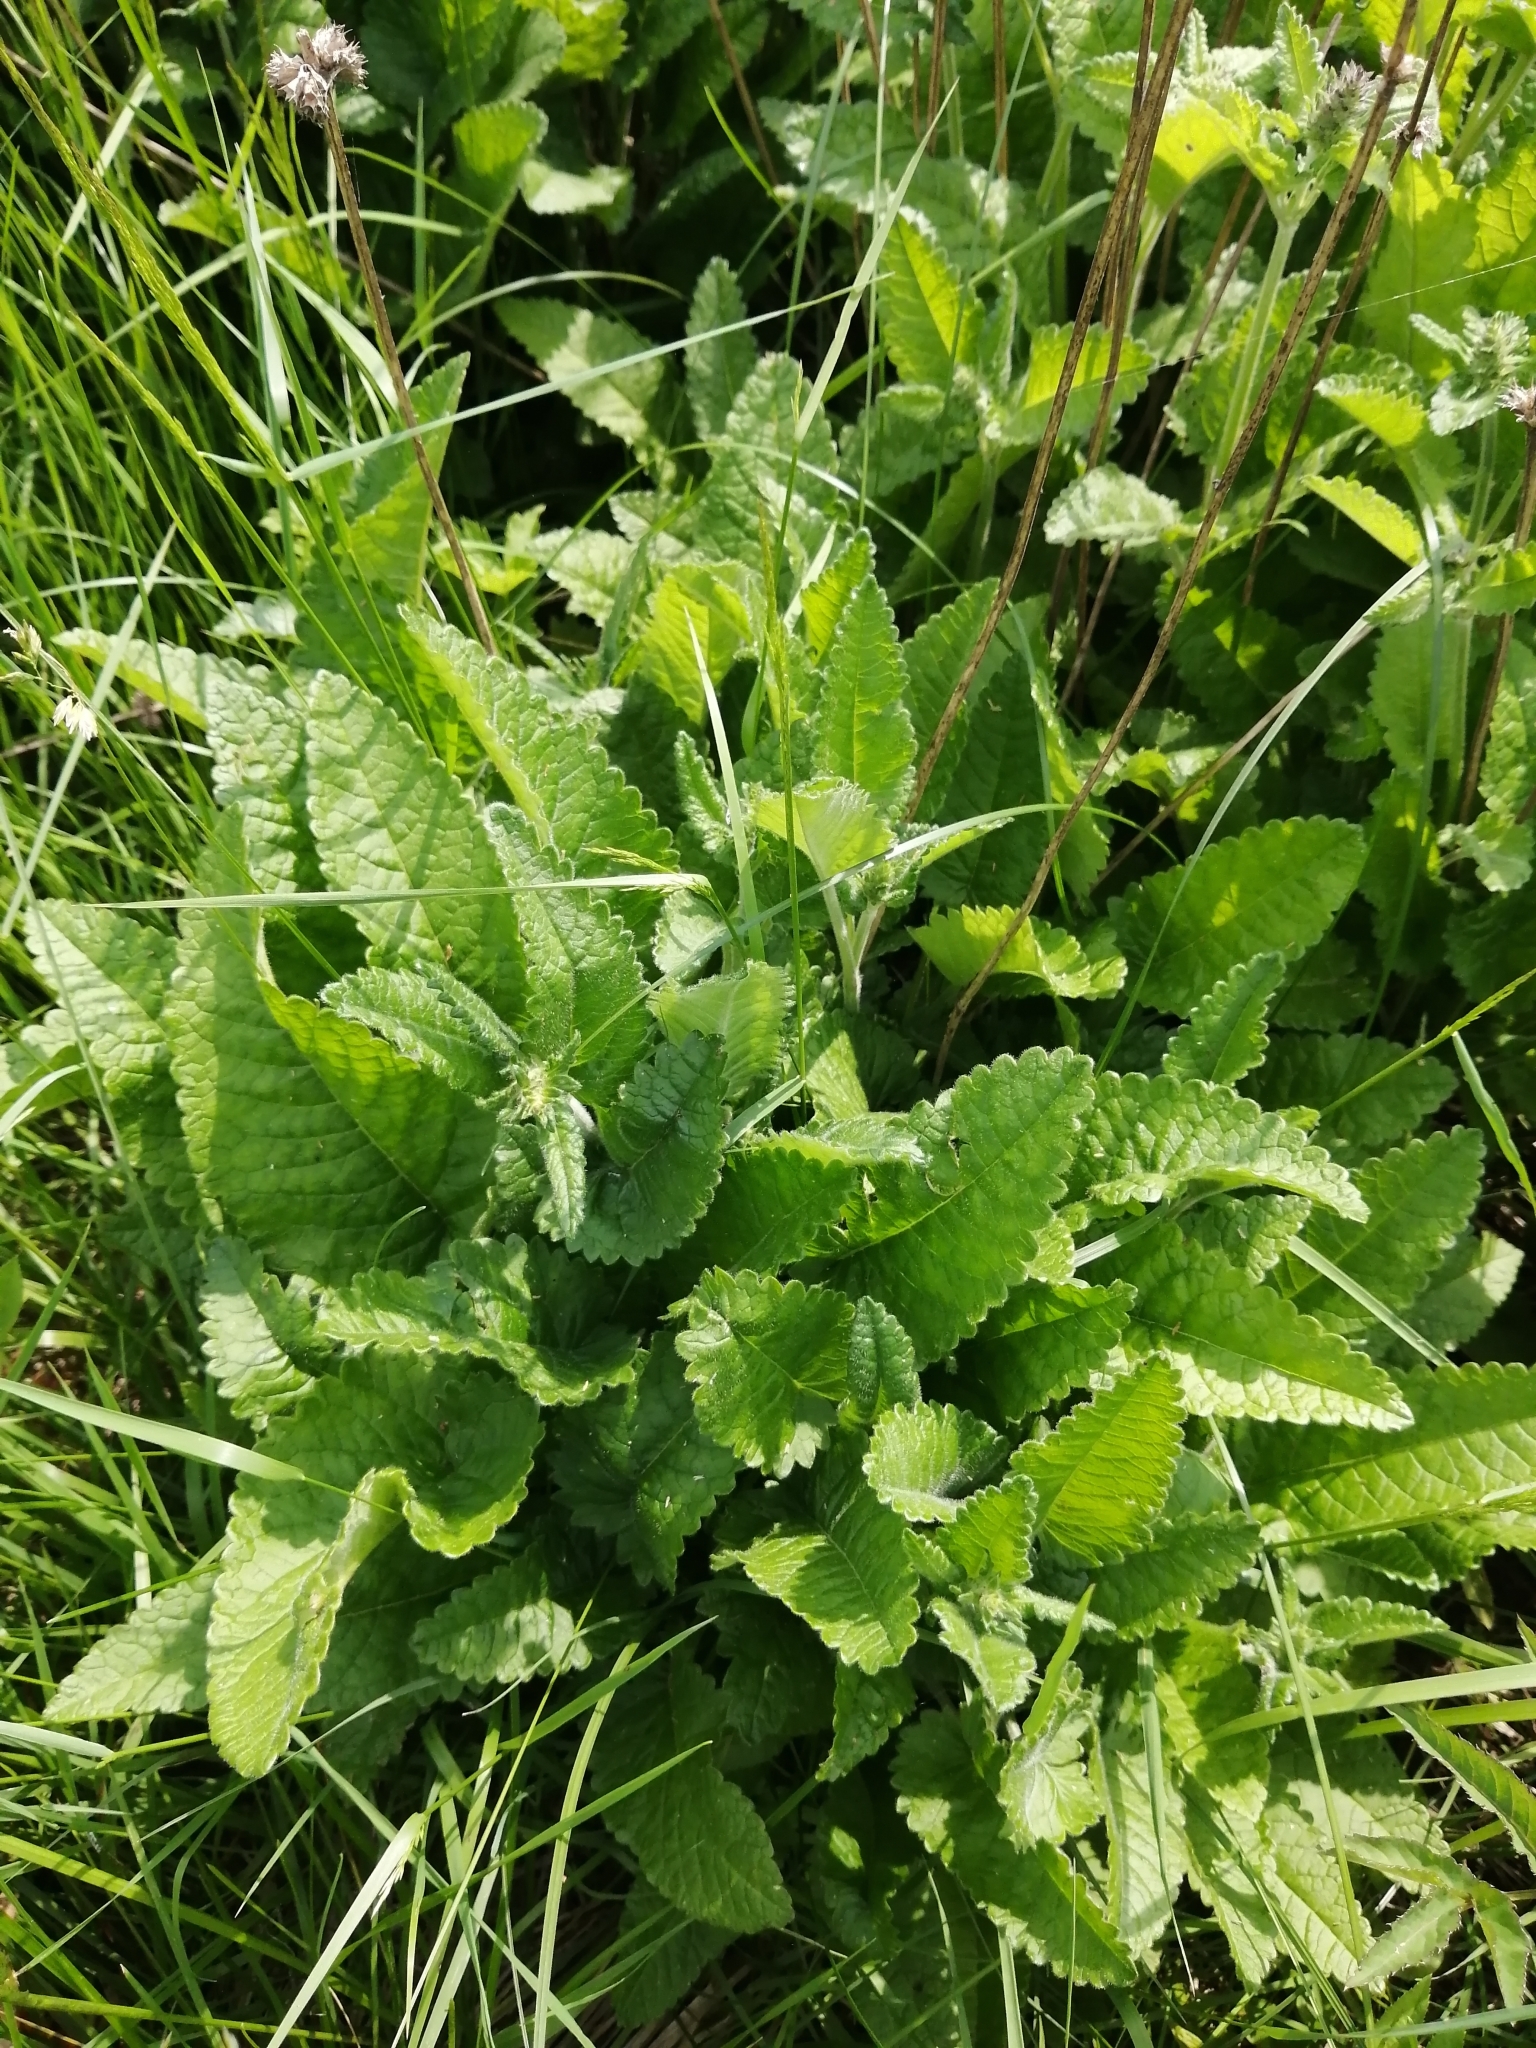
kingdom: Plantae
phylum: Tracheophyta
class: Magnoliopsida
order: Lamiales
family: Lamiaceae
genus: Betonica
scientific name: Betonica officinalis
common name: Bishop's-wort
